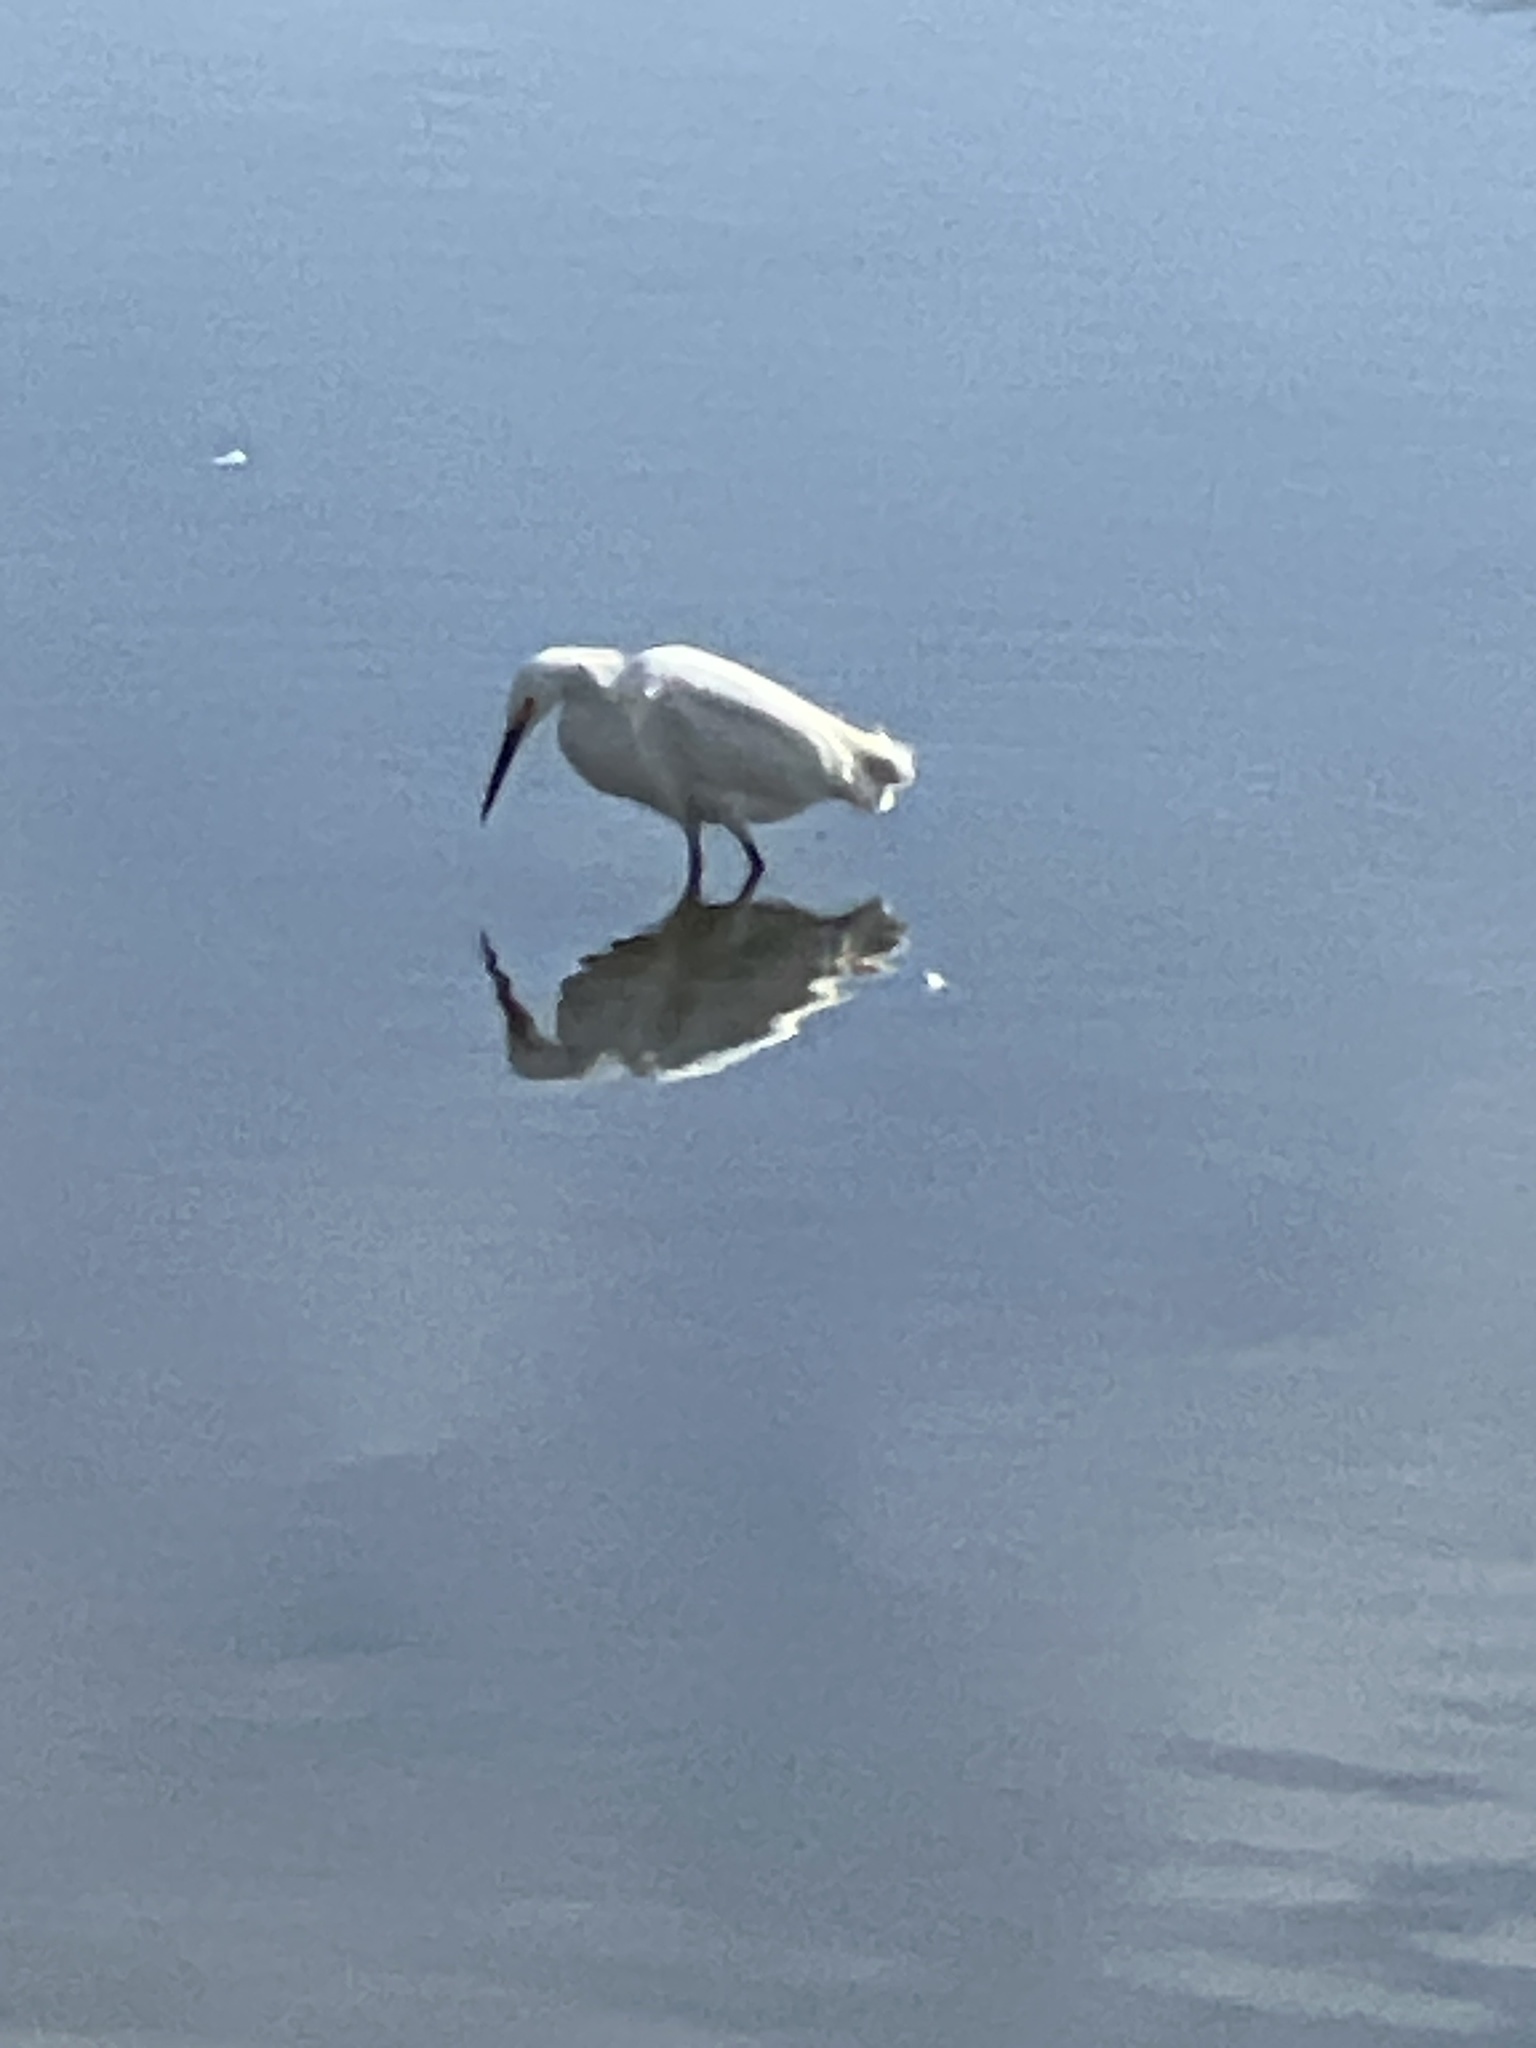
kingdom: Animalia
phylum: Chordata
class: Aves
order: Pelecaniformes
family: Ardeidae
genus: Egretta
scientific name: Egretta thula
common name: Snowy egret
